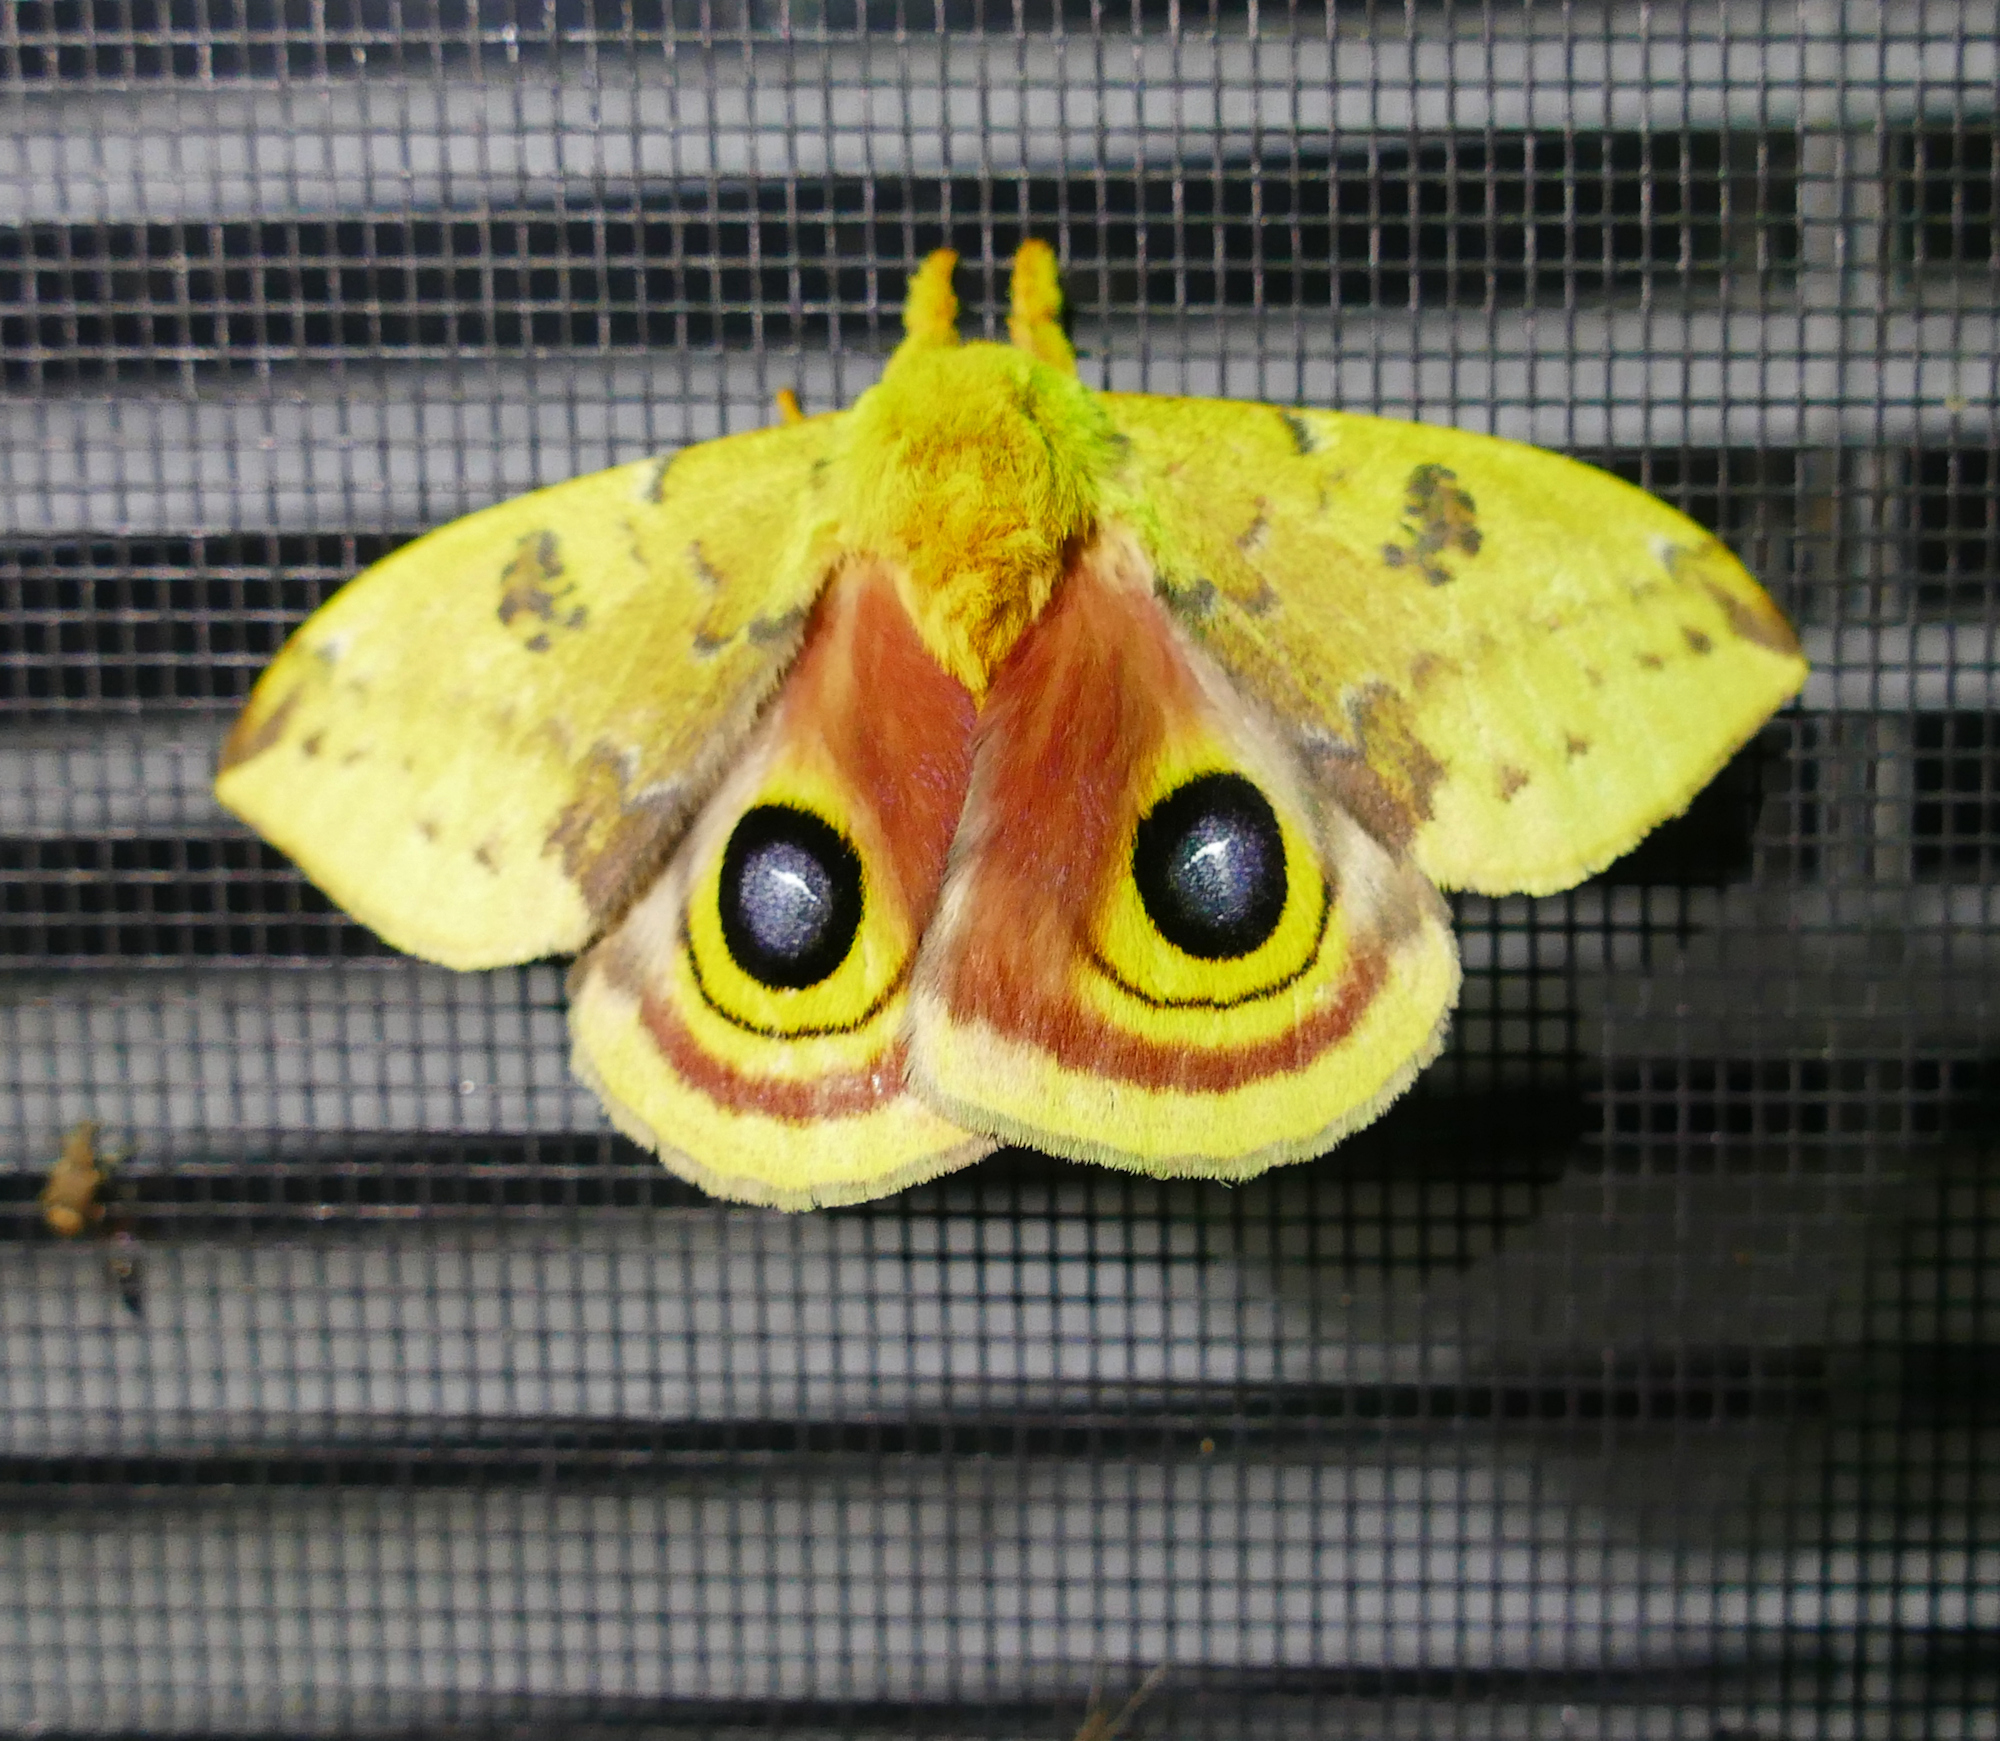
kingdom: Animalia
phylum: Arthropoda
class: Insecta
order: Lepidoptera
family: Saturniidae
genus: Automeris
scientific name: Automeris io
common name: Io moth
